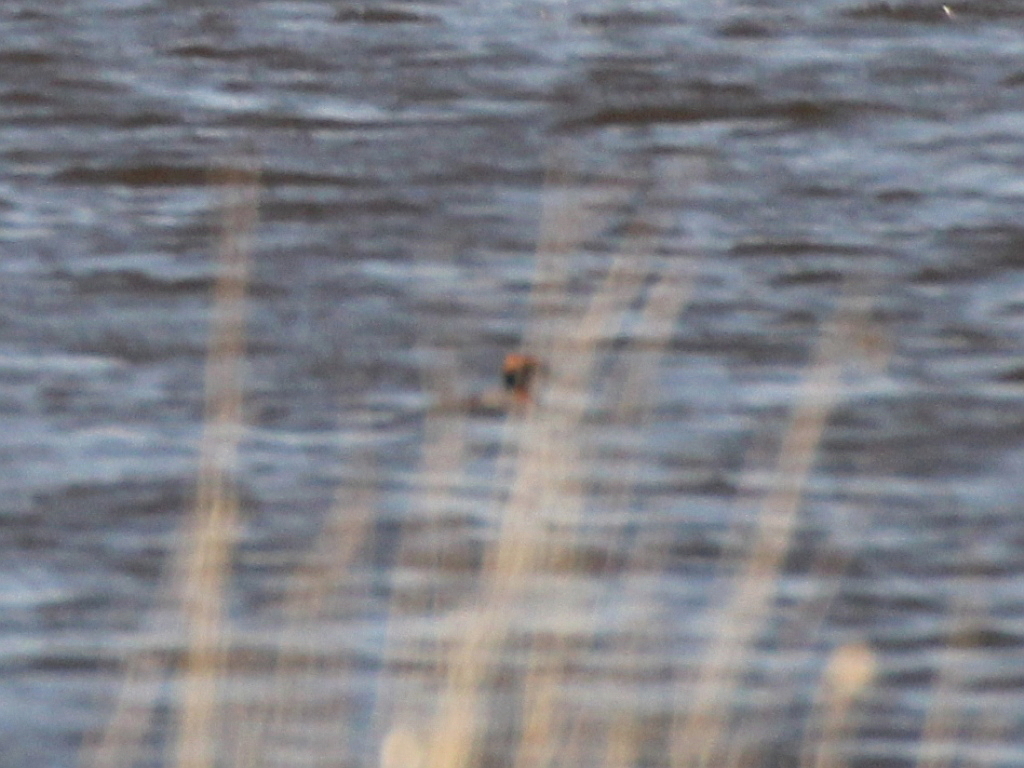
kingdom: Animalia
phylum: Chordata
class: Aves
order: Podicipediformes
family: Podicipedidae
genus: Podiceps
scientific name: Podiceps auritus
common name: Horned grebe
